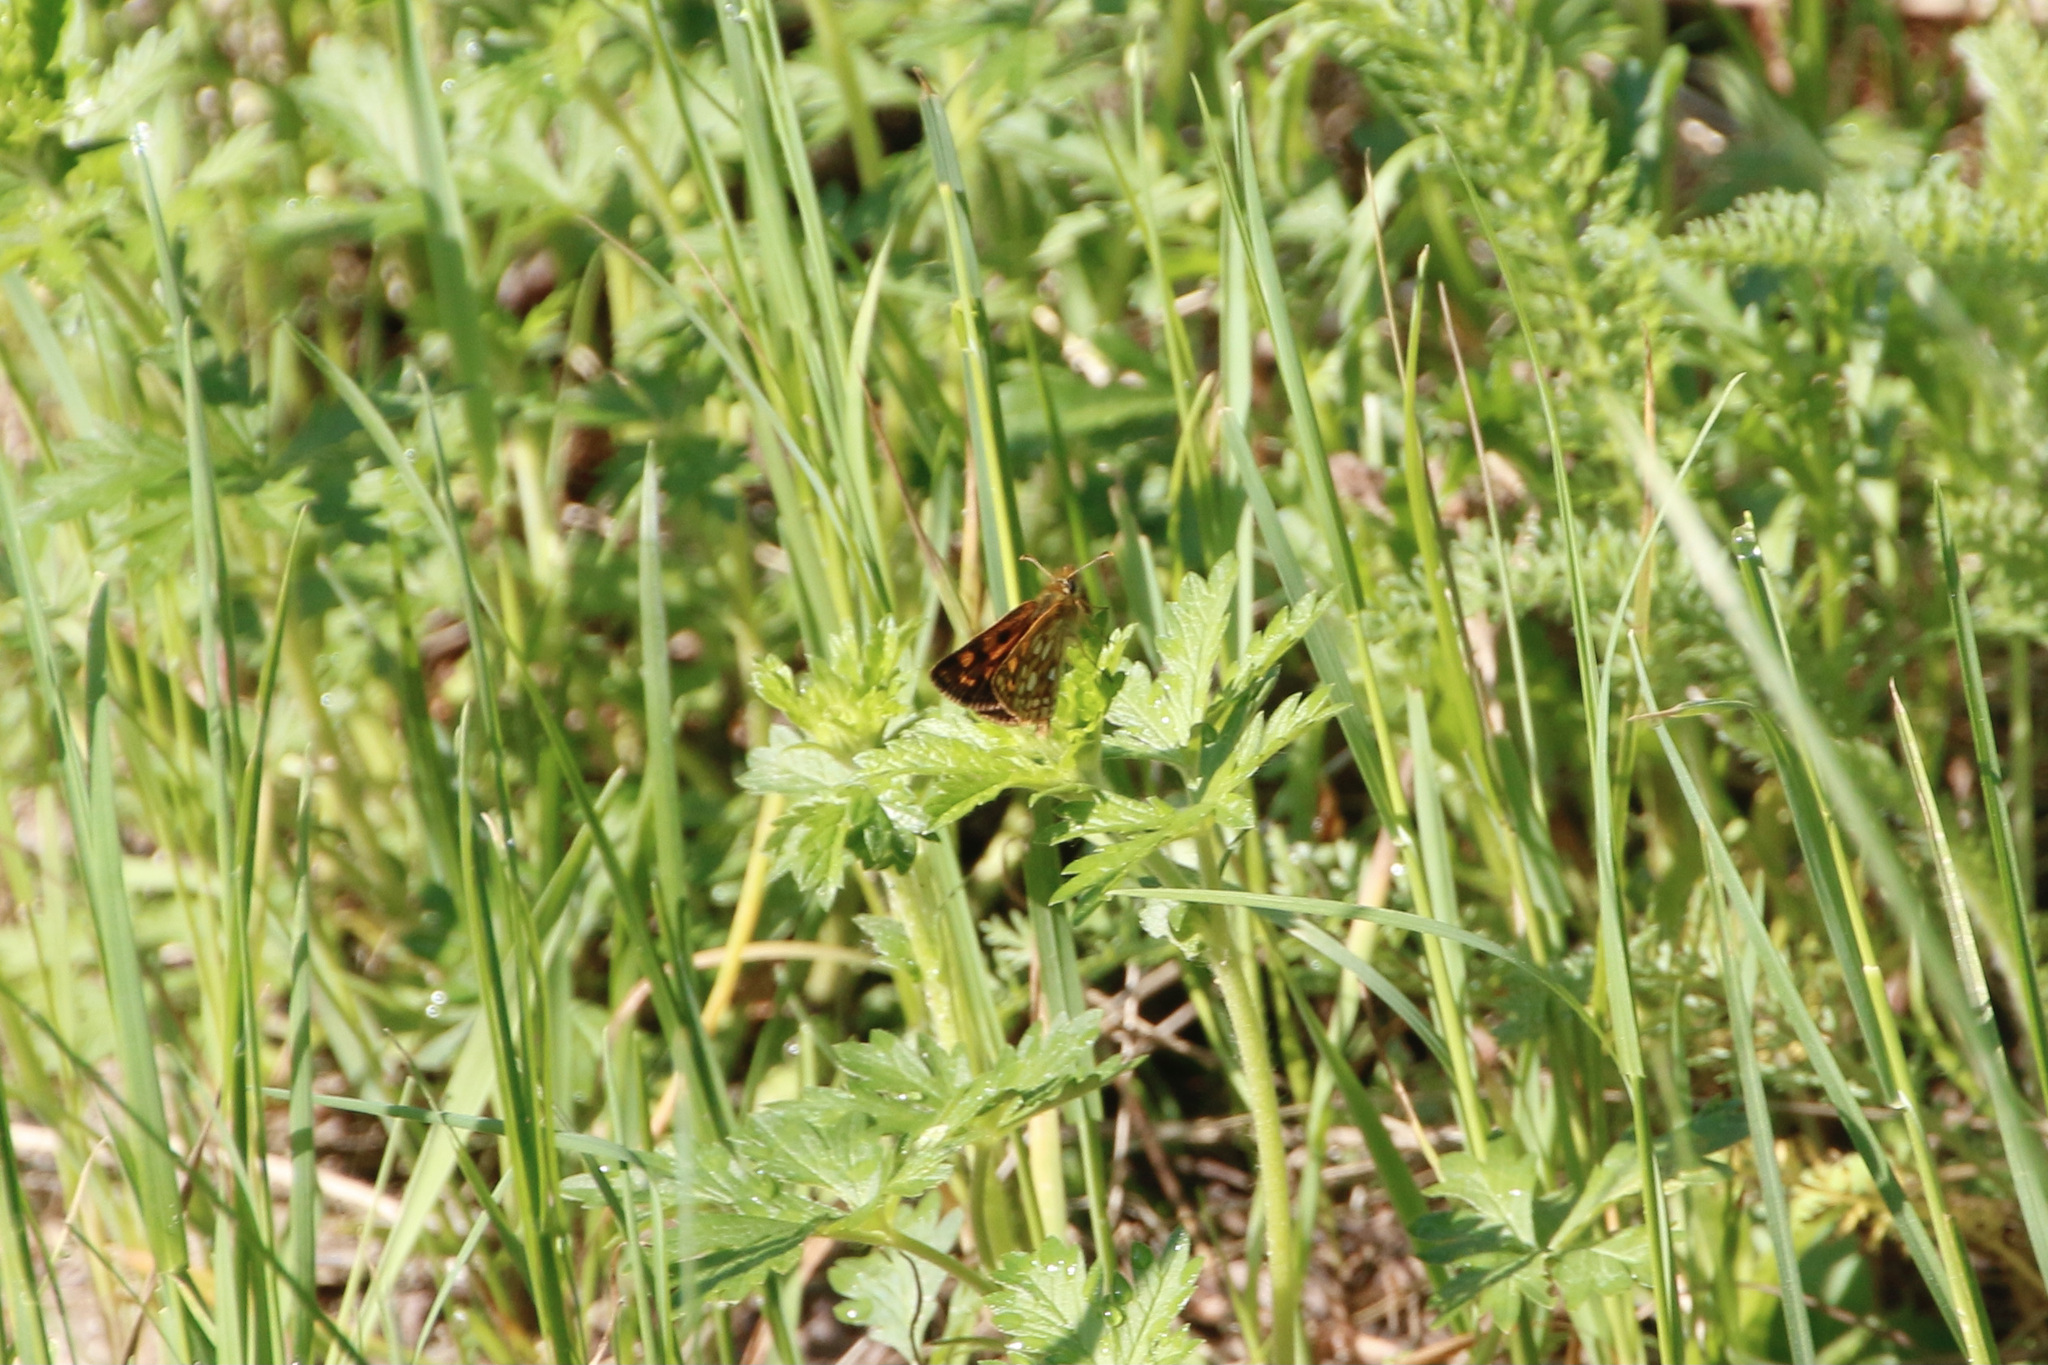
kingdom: Animalia
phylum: Arthropoda
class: Insecta
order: Lepidoptera
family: Hesperiidae
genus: Carterocephalus
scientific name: Carterocephalus mandan
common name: Arctic skipperling
